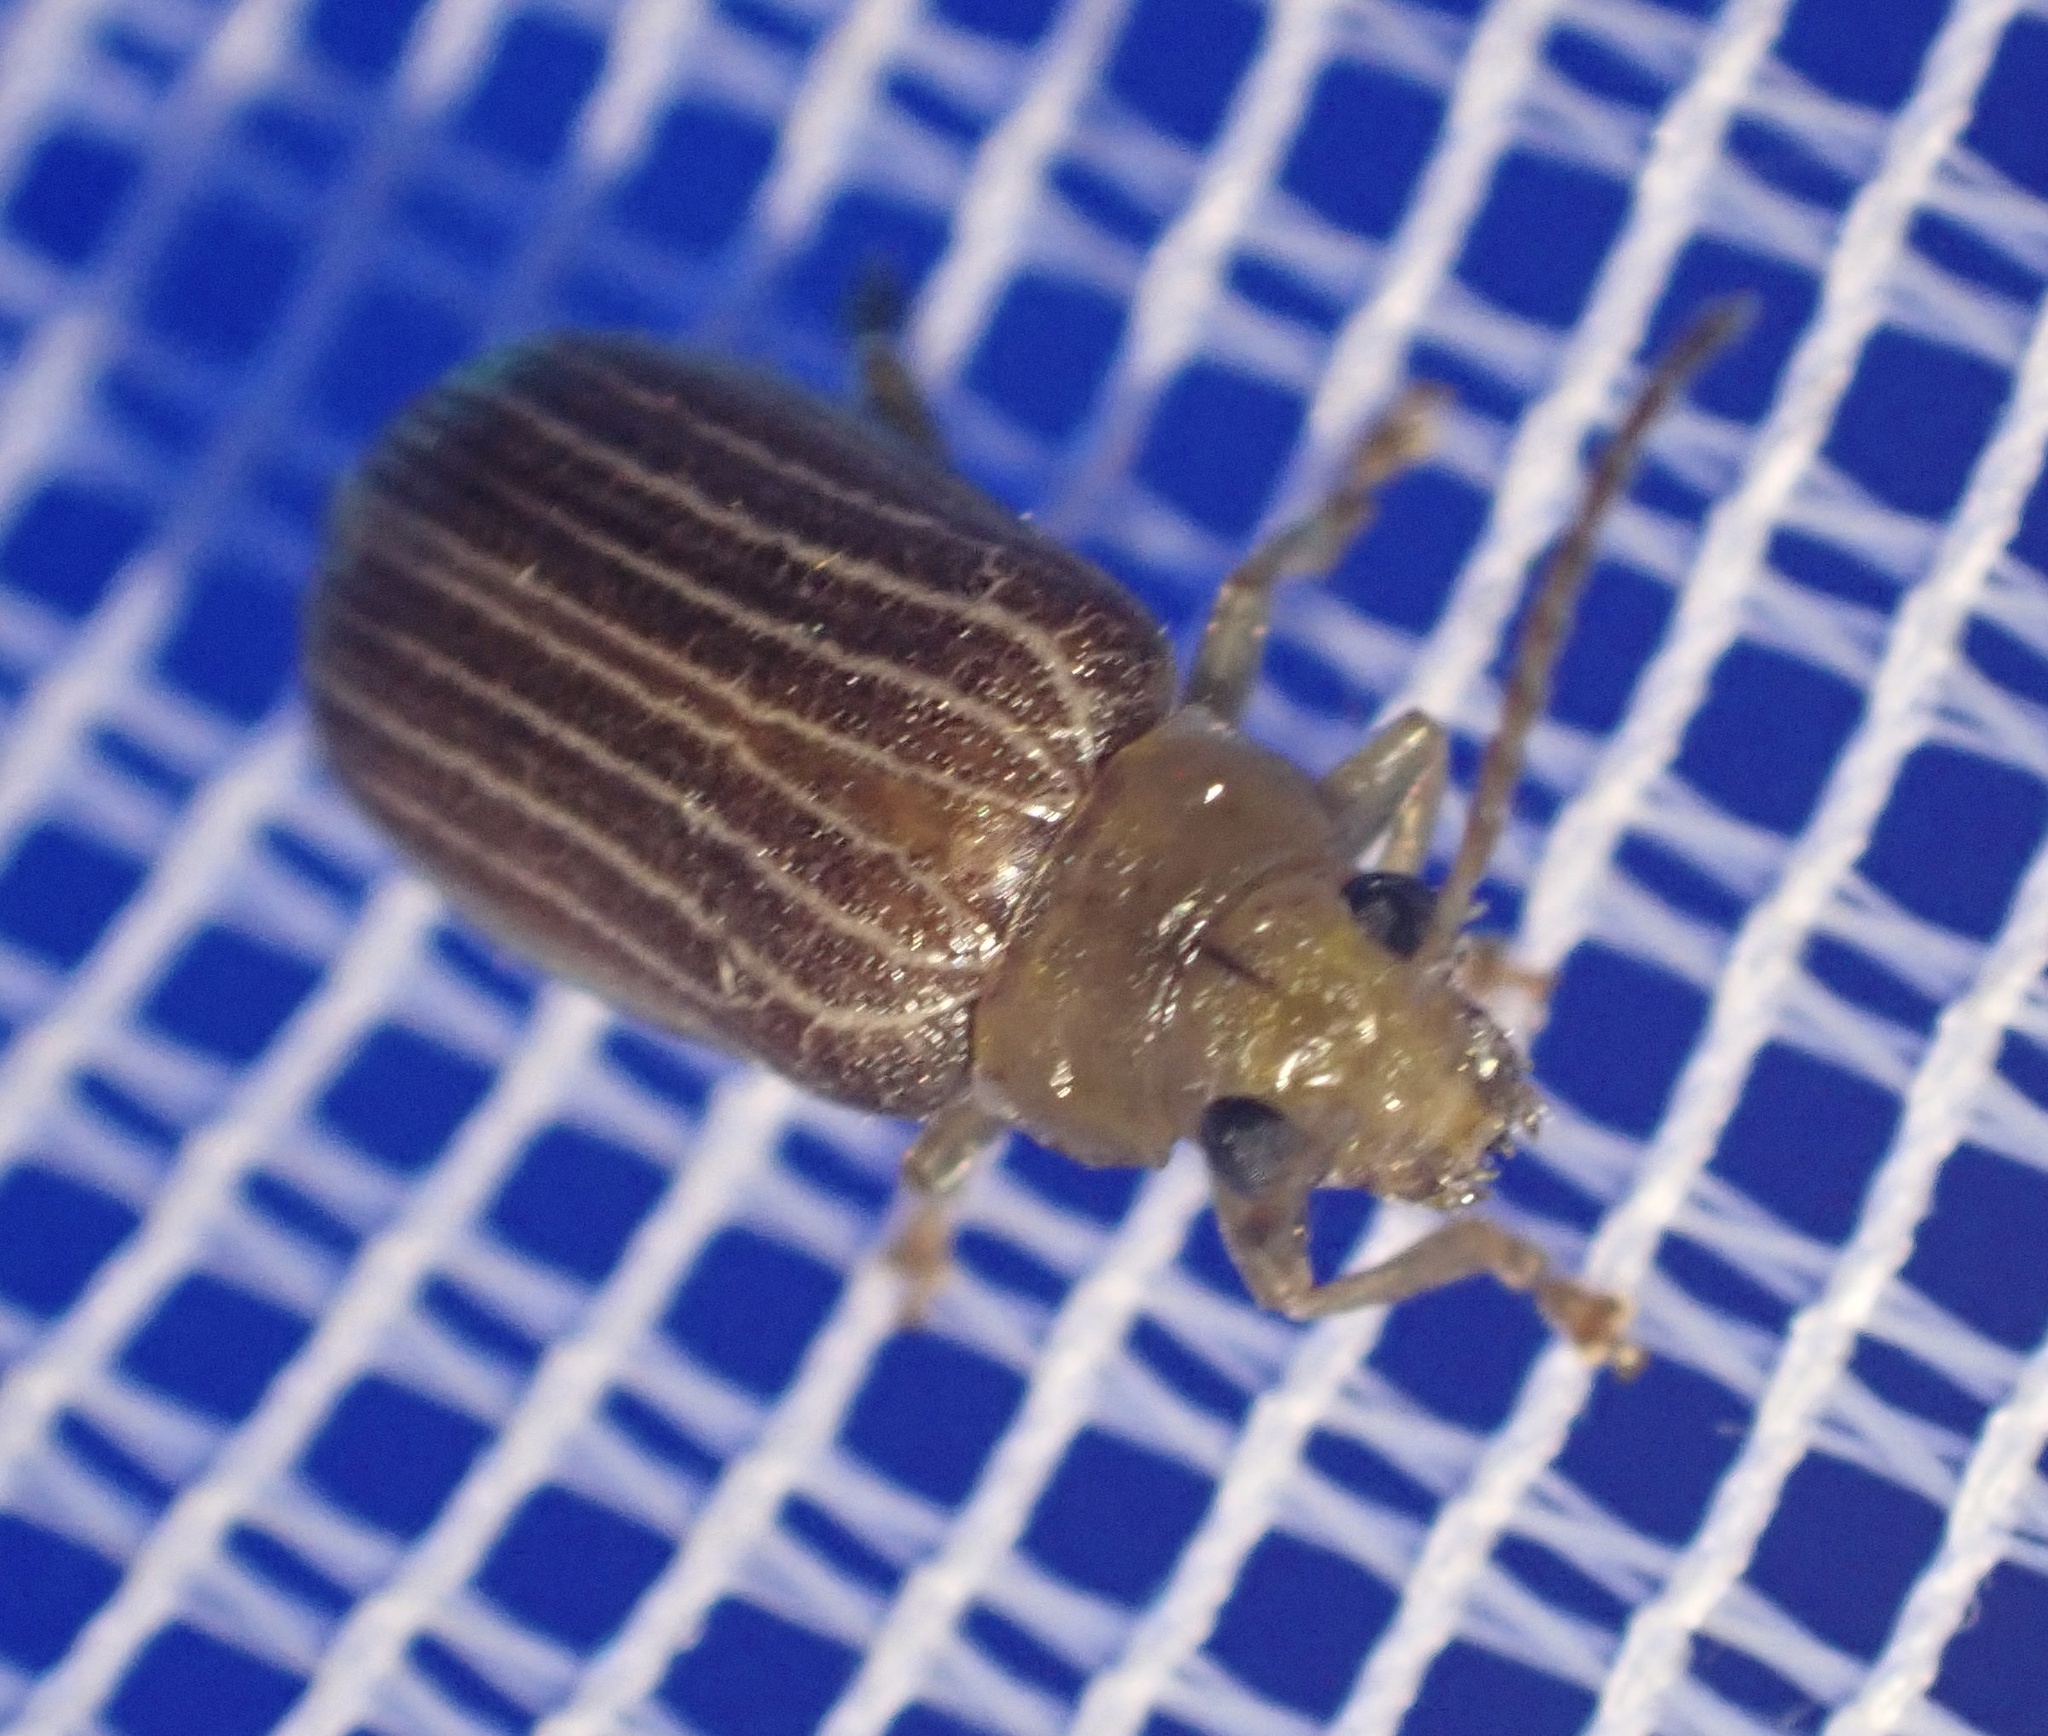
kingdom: Animalia
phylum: Arthropoda
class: Insecta
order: Coleoptera
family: Chrysomelidae
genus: Pleronexis
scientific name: Pleronexis
